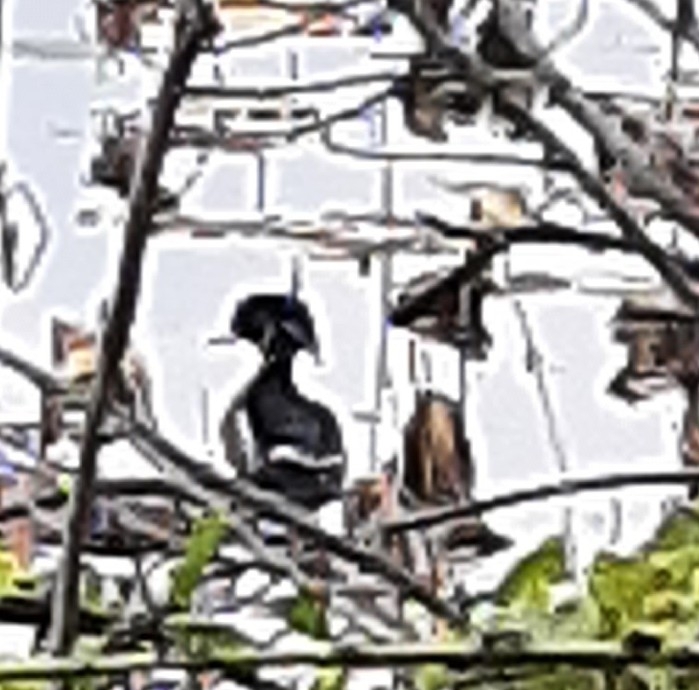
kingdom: Animalia
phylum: Chordata
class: Aves
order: Anseriformes
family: Anatidae
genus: Aix
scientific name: Aix sponsa
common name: Wood duck
